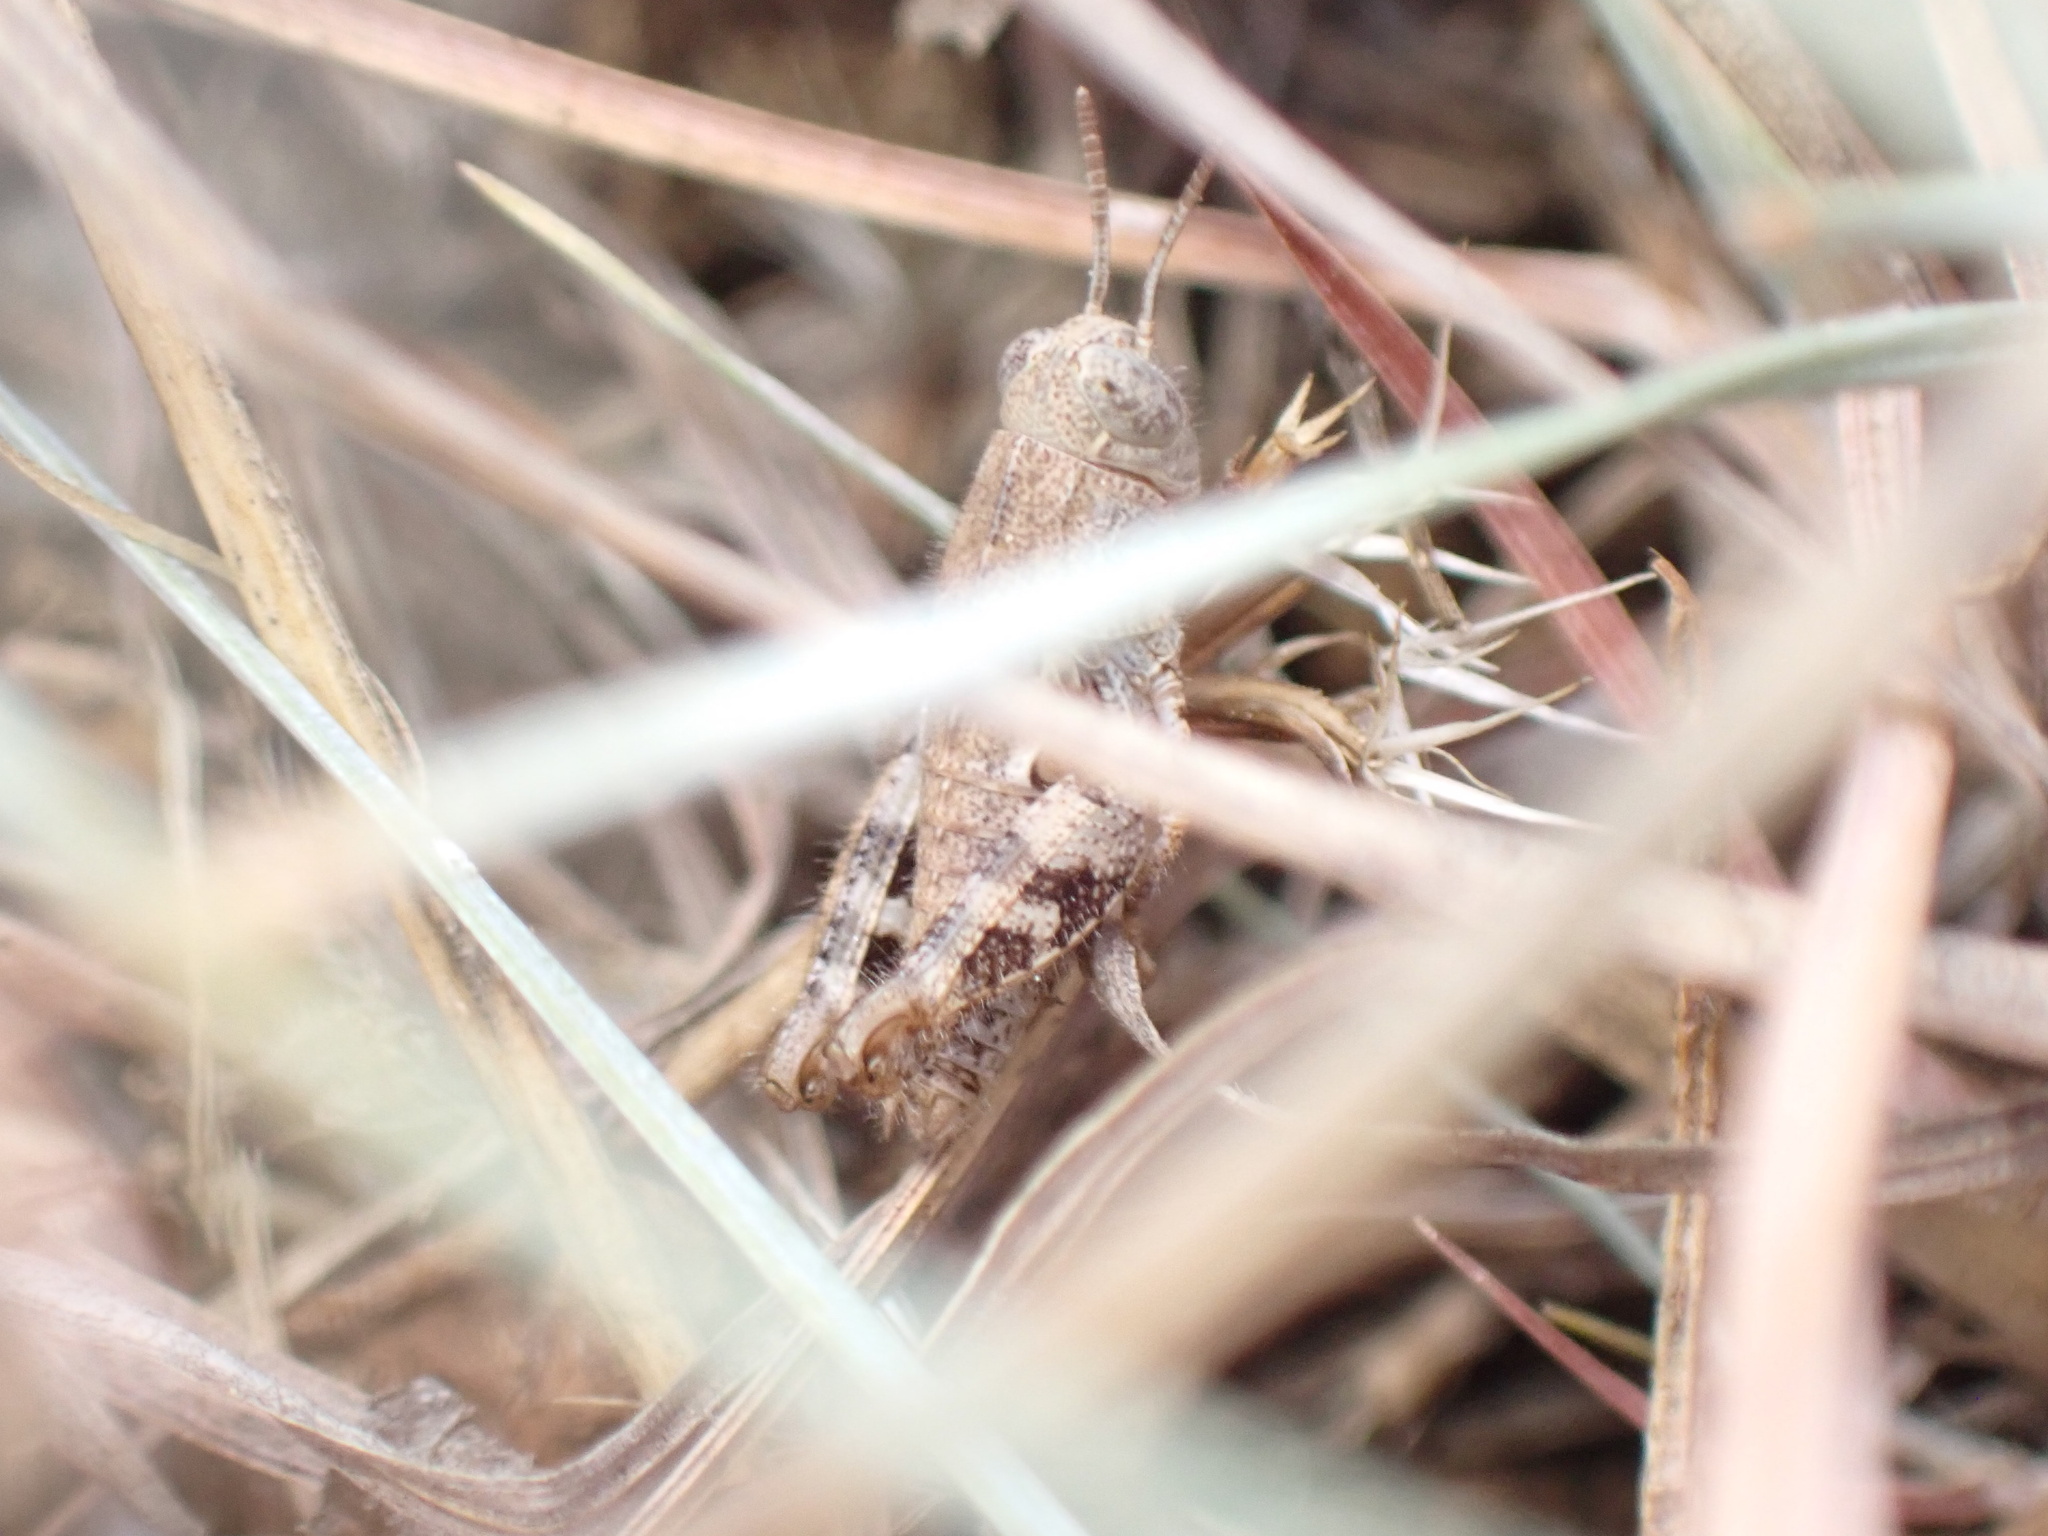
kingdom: Animalia
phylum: Arthropoda
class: Insecta
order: Orthoptera
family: Acrididae
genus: Pezotettix
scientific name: Pezotettix giornae
